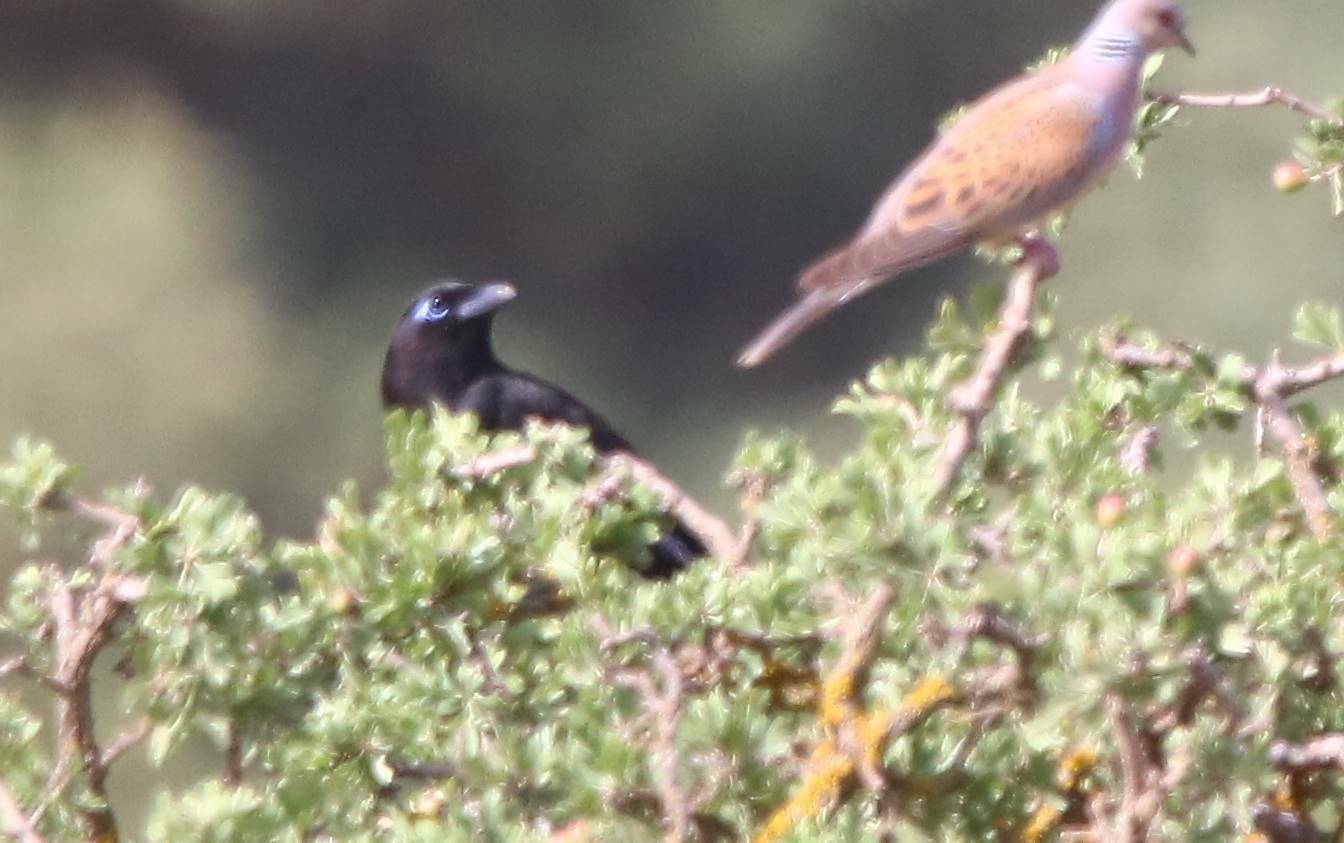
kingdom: Animalia
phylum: Chordata
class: Aves
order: Passeriformes
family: Corvidae
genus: Pica
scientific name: Pica mauritanica
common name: Maghreb magpie
